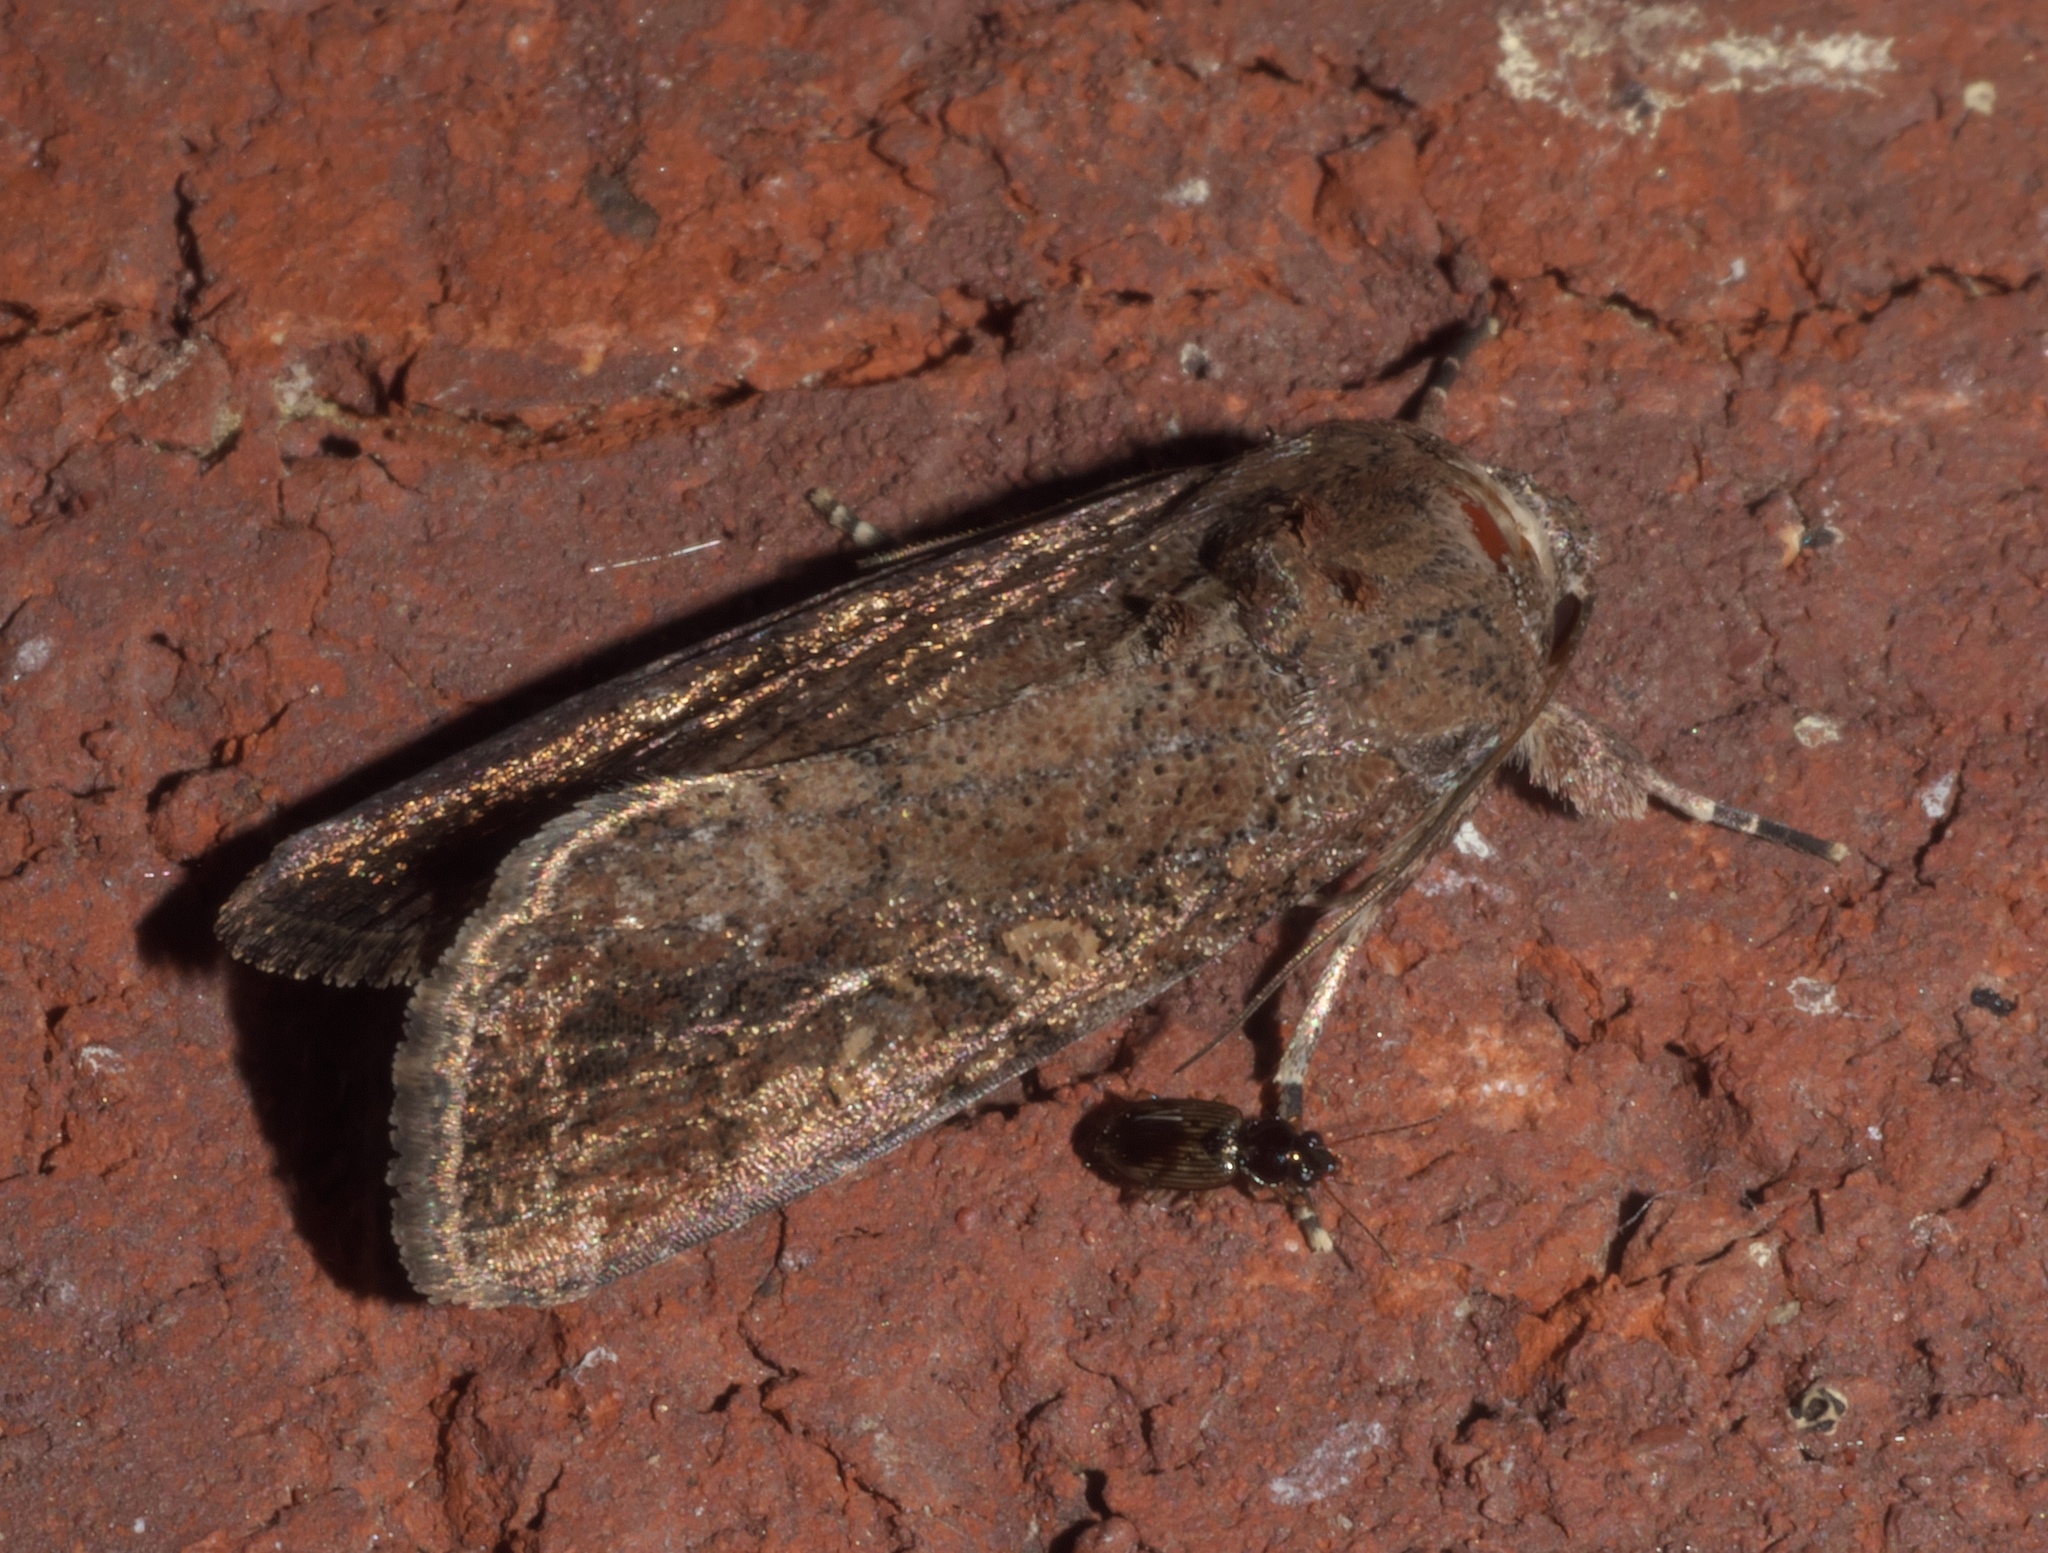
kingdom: Animalia
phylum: Arthropoda
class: Insecta
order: Lepidoptera
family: Noctuidae
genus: Spodoptera
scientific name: Spodoptera frugiperda
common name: Fall armyworm
